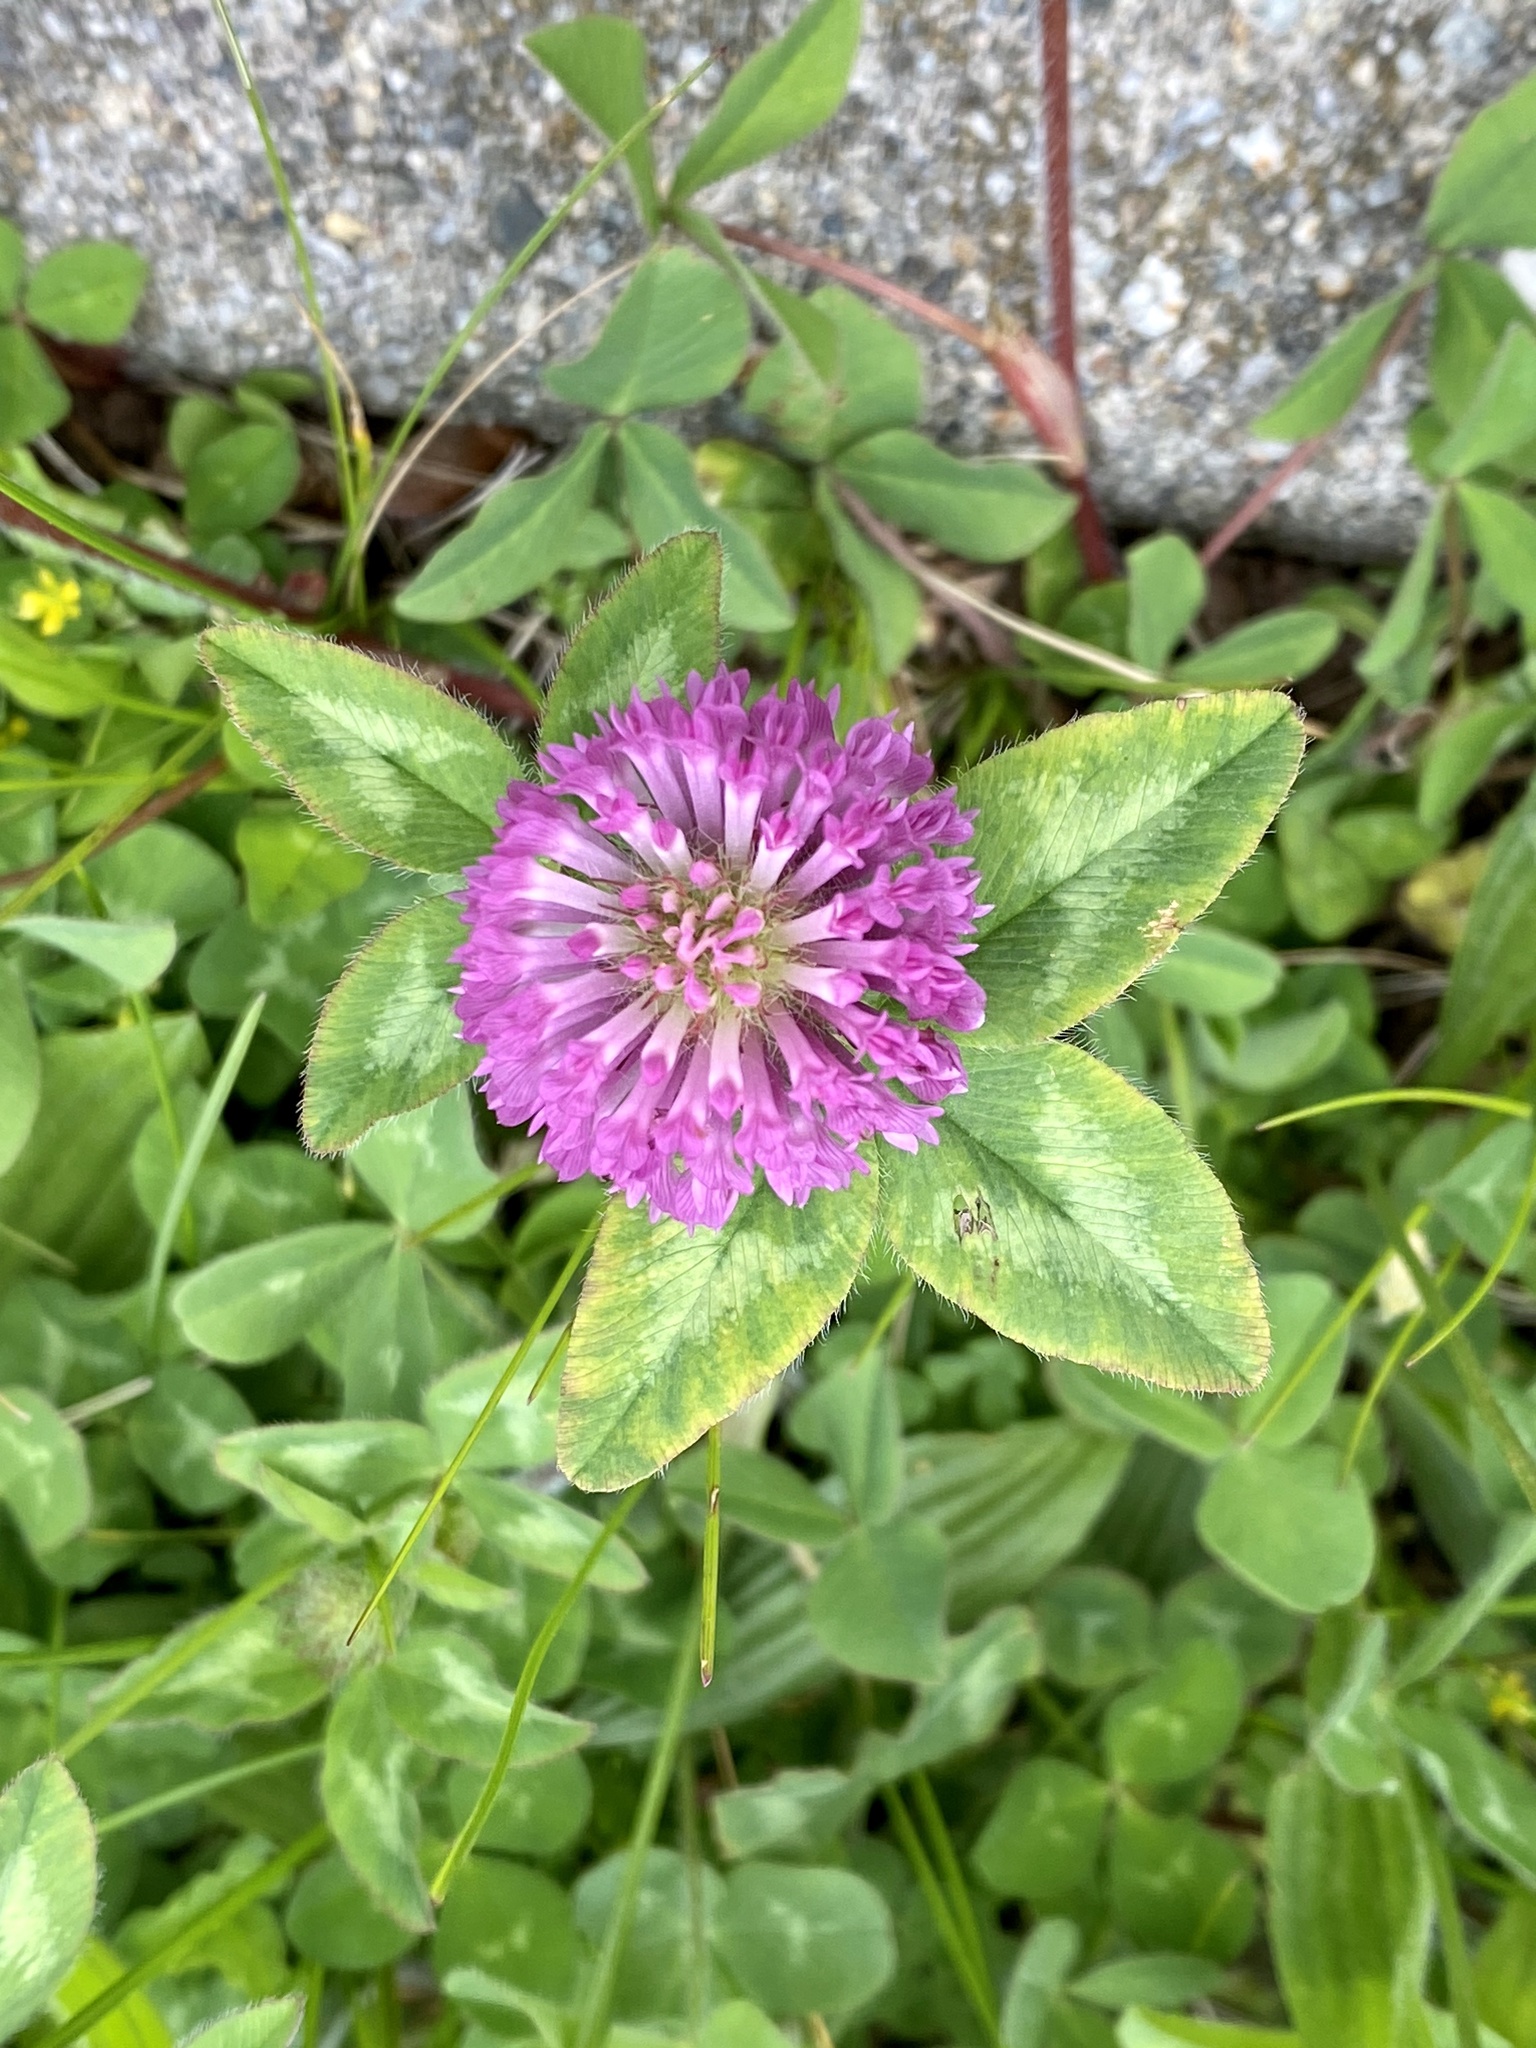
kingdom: Plantae
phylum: Tracheophyta
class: Magnoliopsida
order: Fabales
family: Fabaceae
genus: Trifolium
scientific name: Trifolium pratense
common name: Red clover
